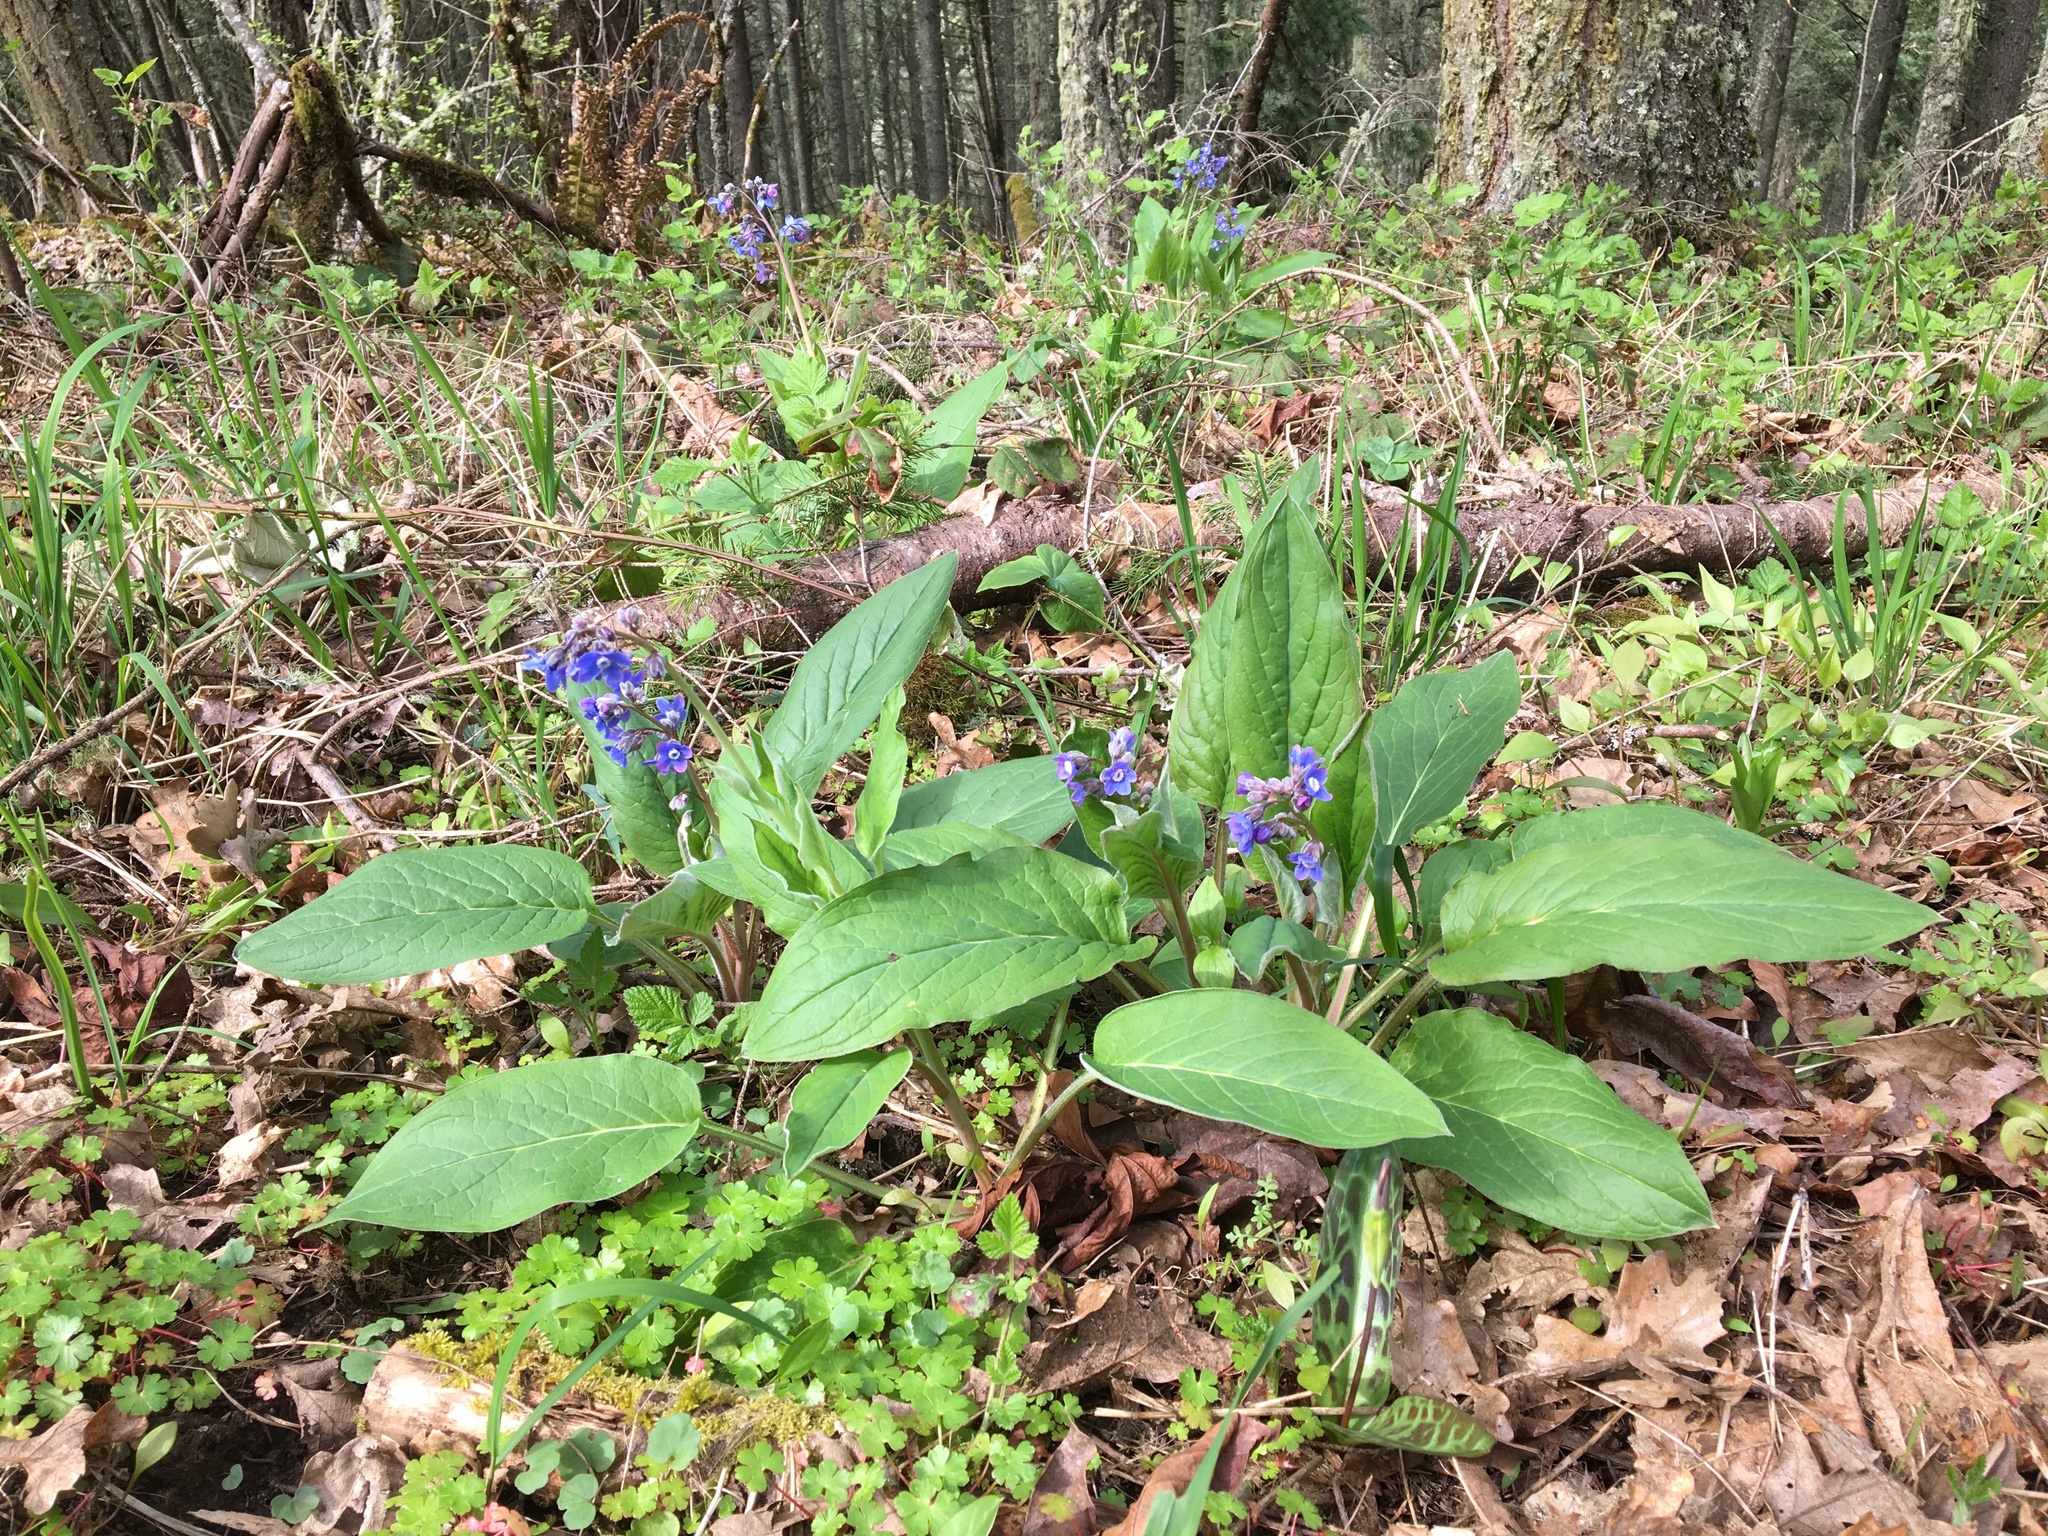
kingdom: Plantae
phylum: Tracheophyta
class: Magnoliopsida
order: Boraginales
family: Boraginaceae
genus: Adelinia
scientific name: Adelinia grande
